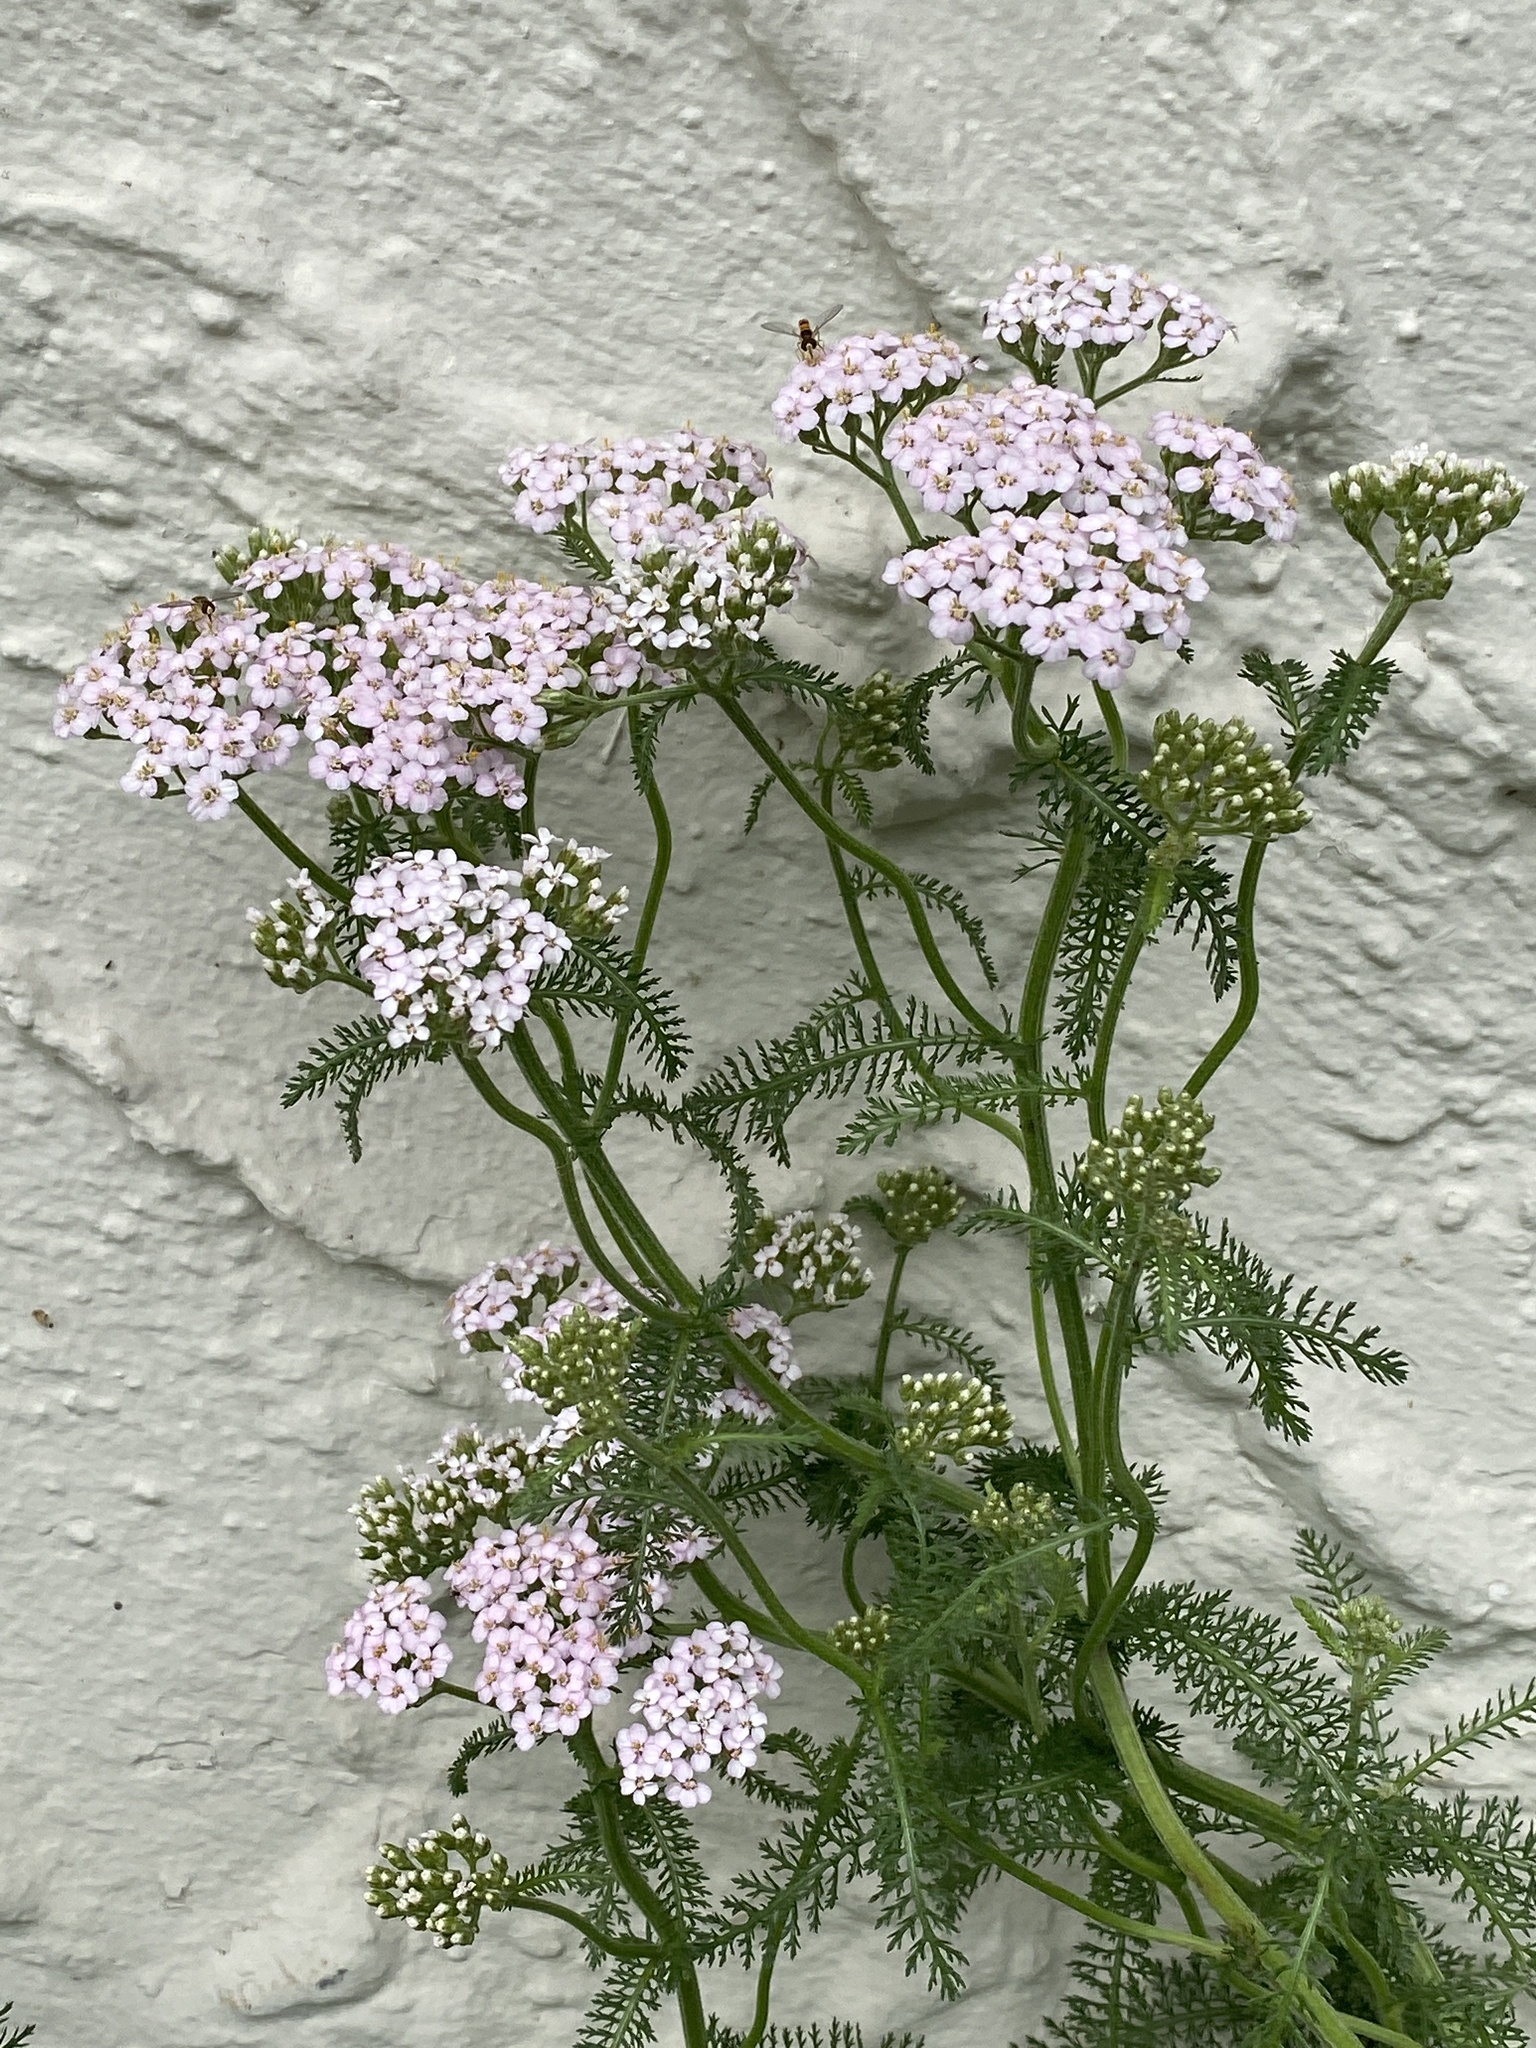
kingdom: Plantae
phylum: Tracheophyta
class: Magnoliopsida
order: Asterales
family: Asteraceae
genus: Achillea
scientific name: Achillea millefolium
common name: Yarrow
